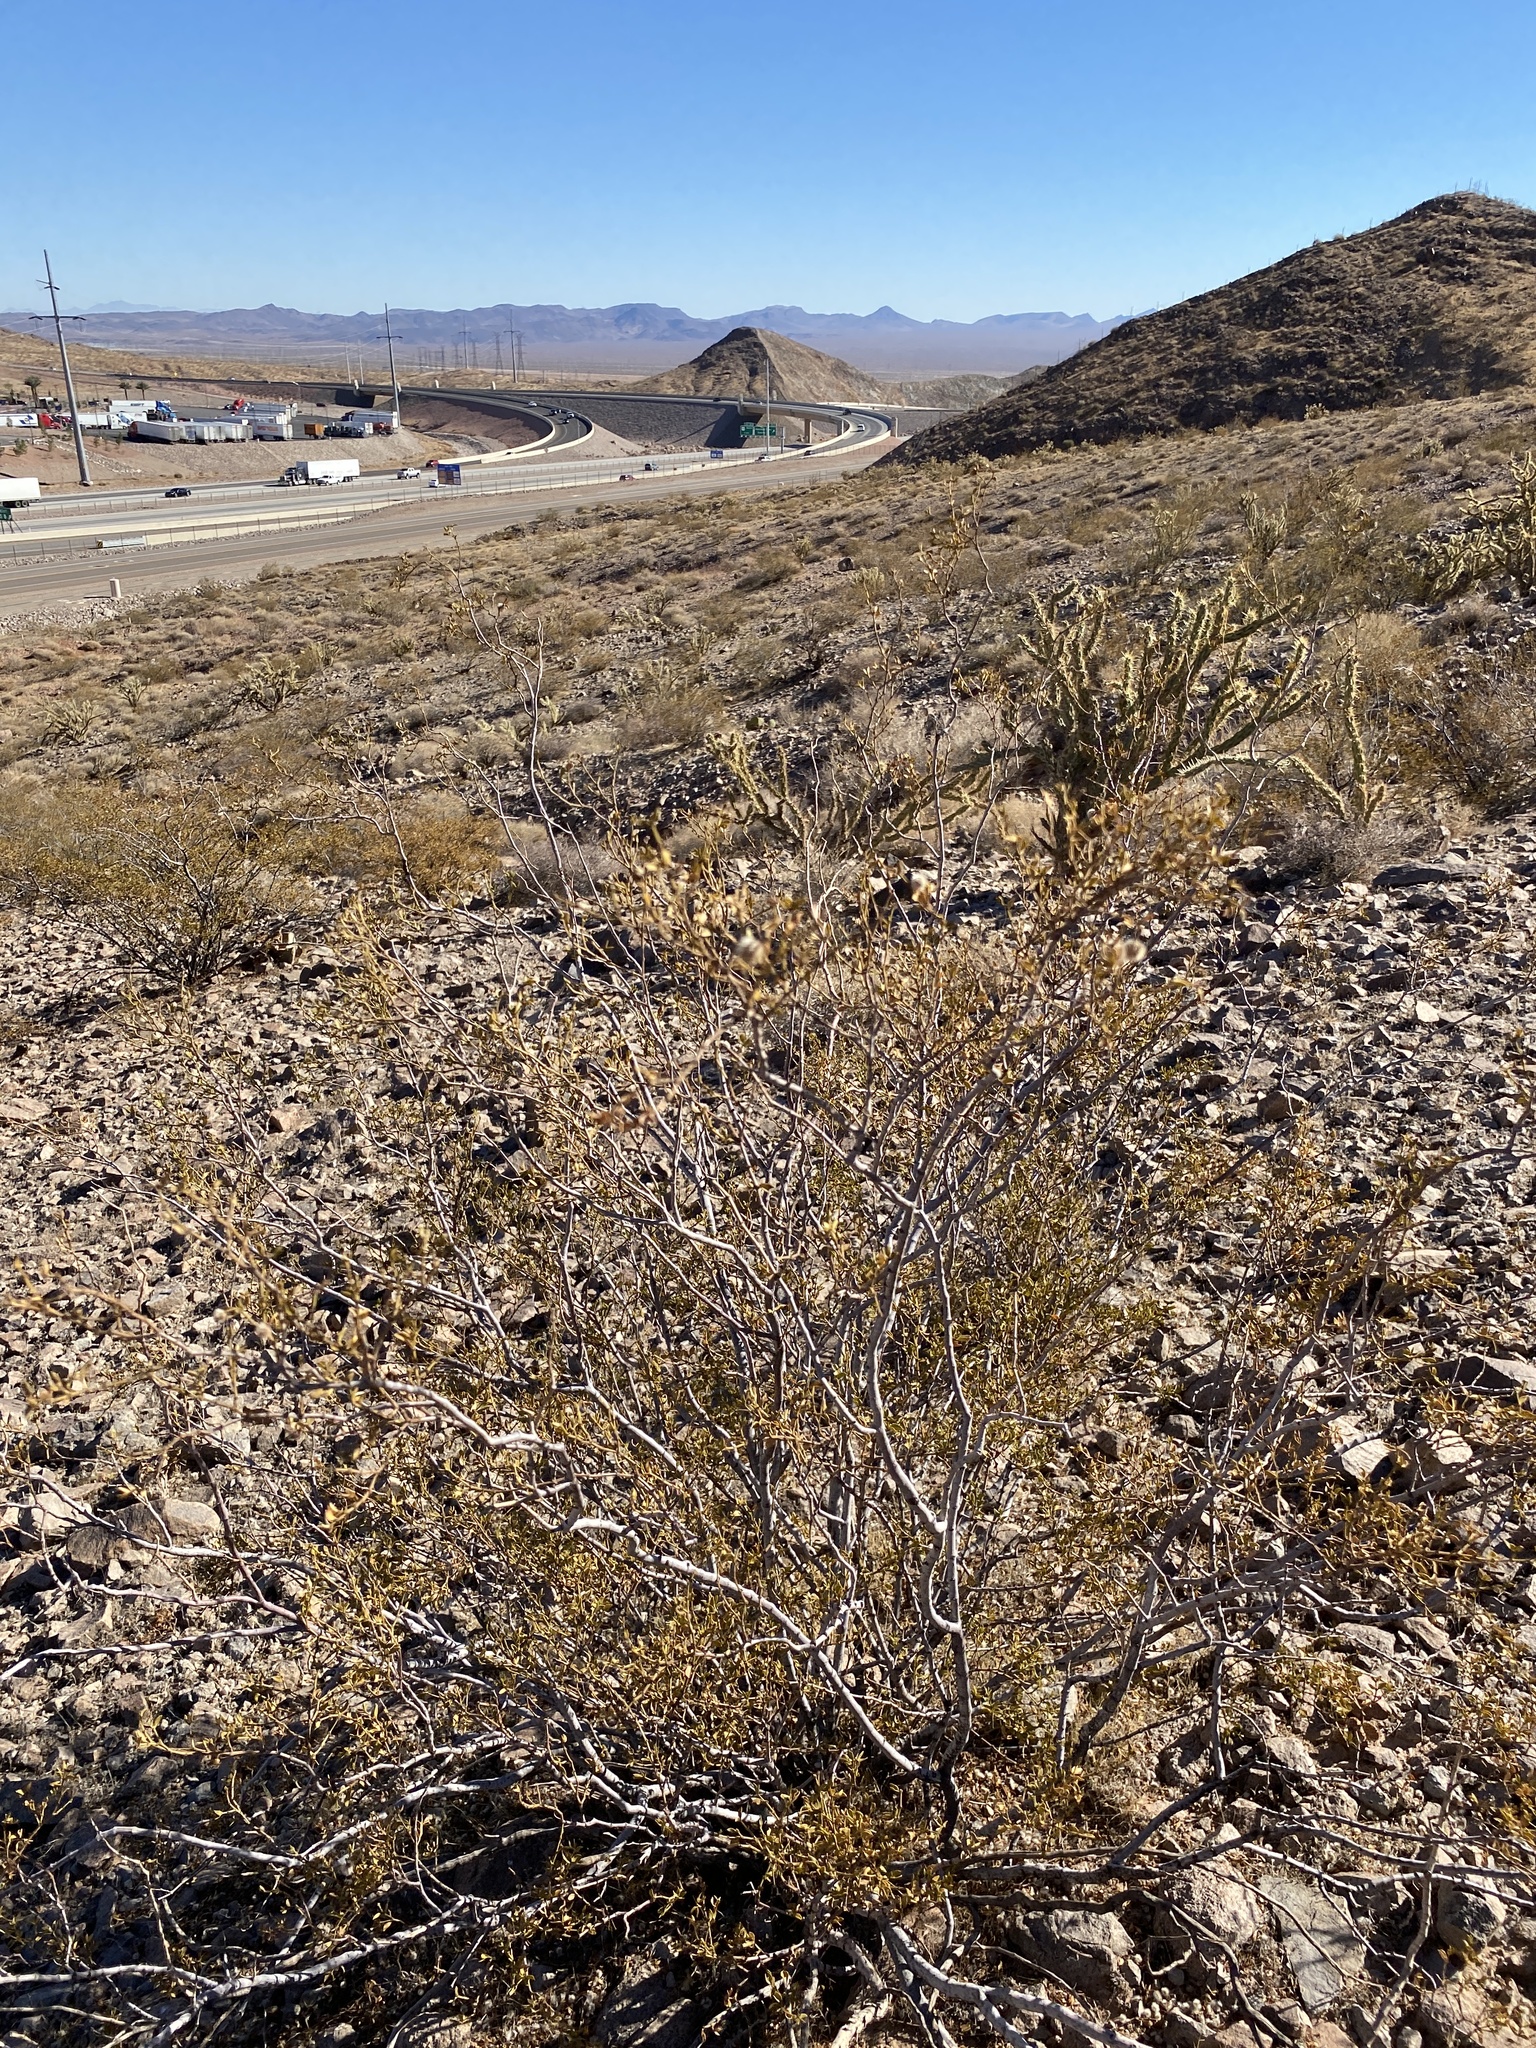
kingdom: Plantae
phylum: Tracheophyta
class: Magnoliopsida
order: Zygophyllales
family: Zygophyllaceae
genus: Larrea
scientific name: Larrea tridentata
